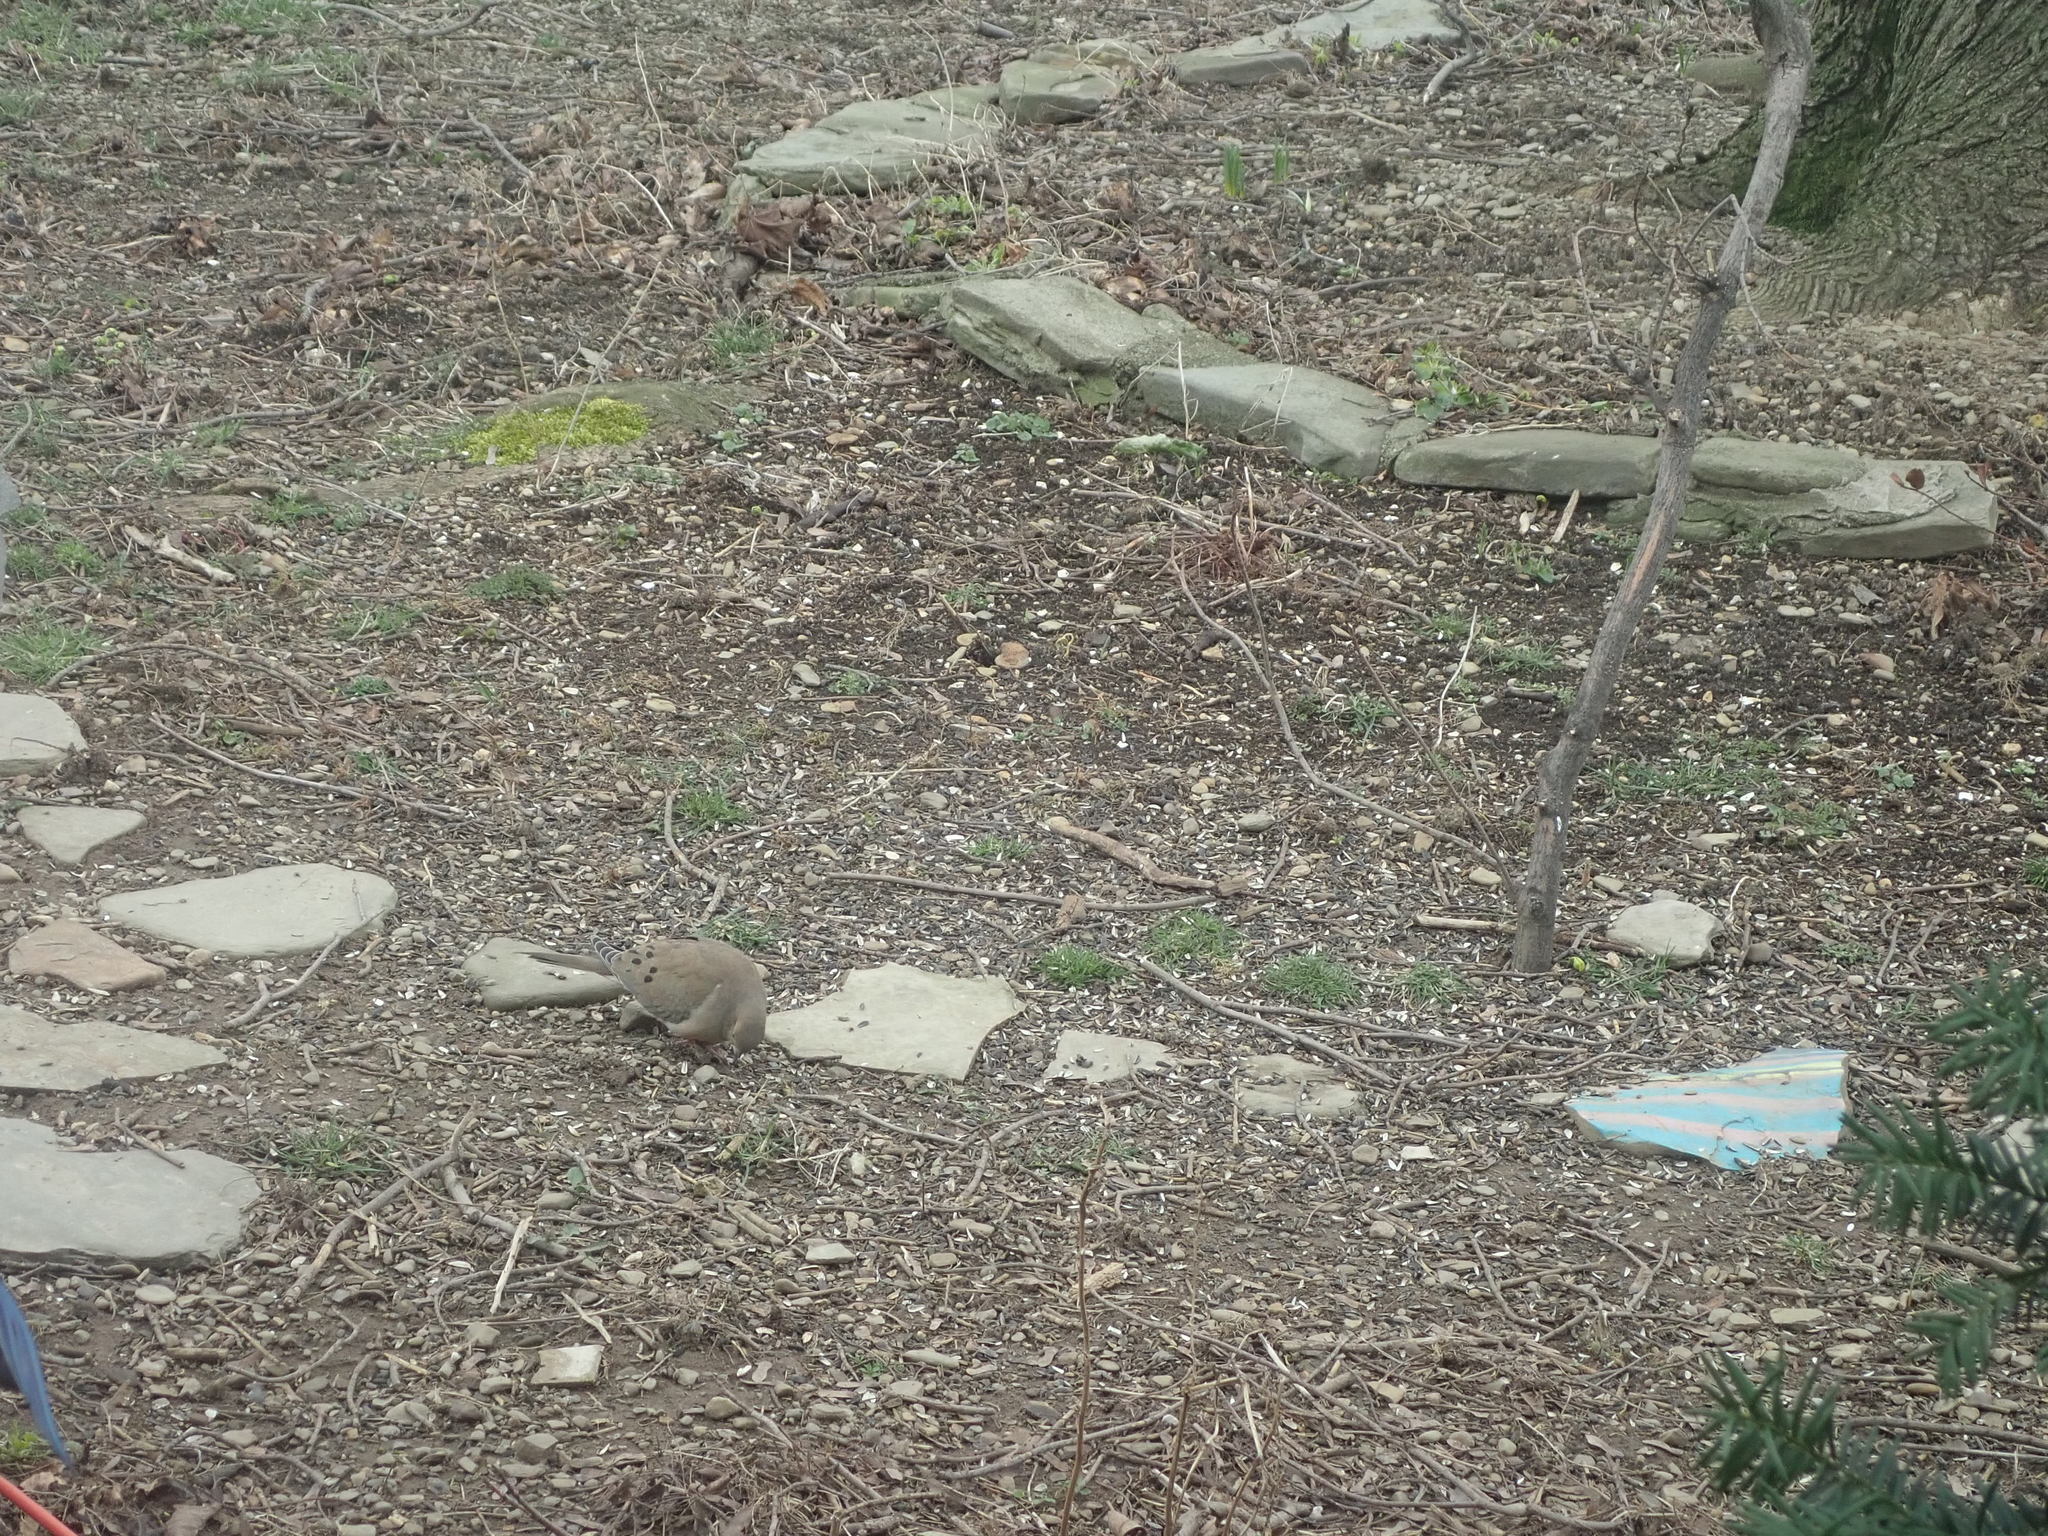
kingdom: Animalia
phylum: Chordata
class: Aves
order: Columbiformes
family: Columbidae
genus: Zenaida
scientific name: Zenaida macroura
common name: Mourning dove
